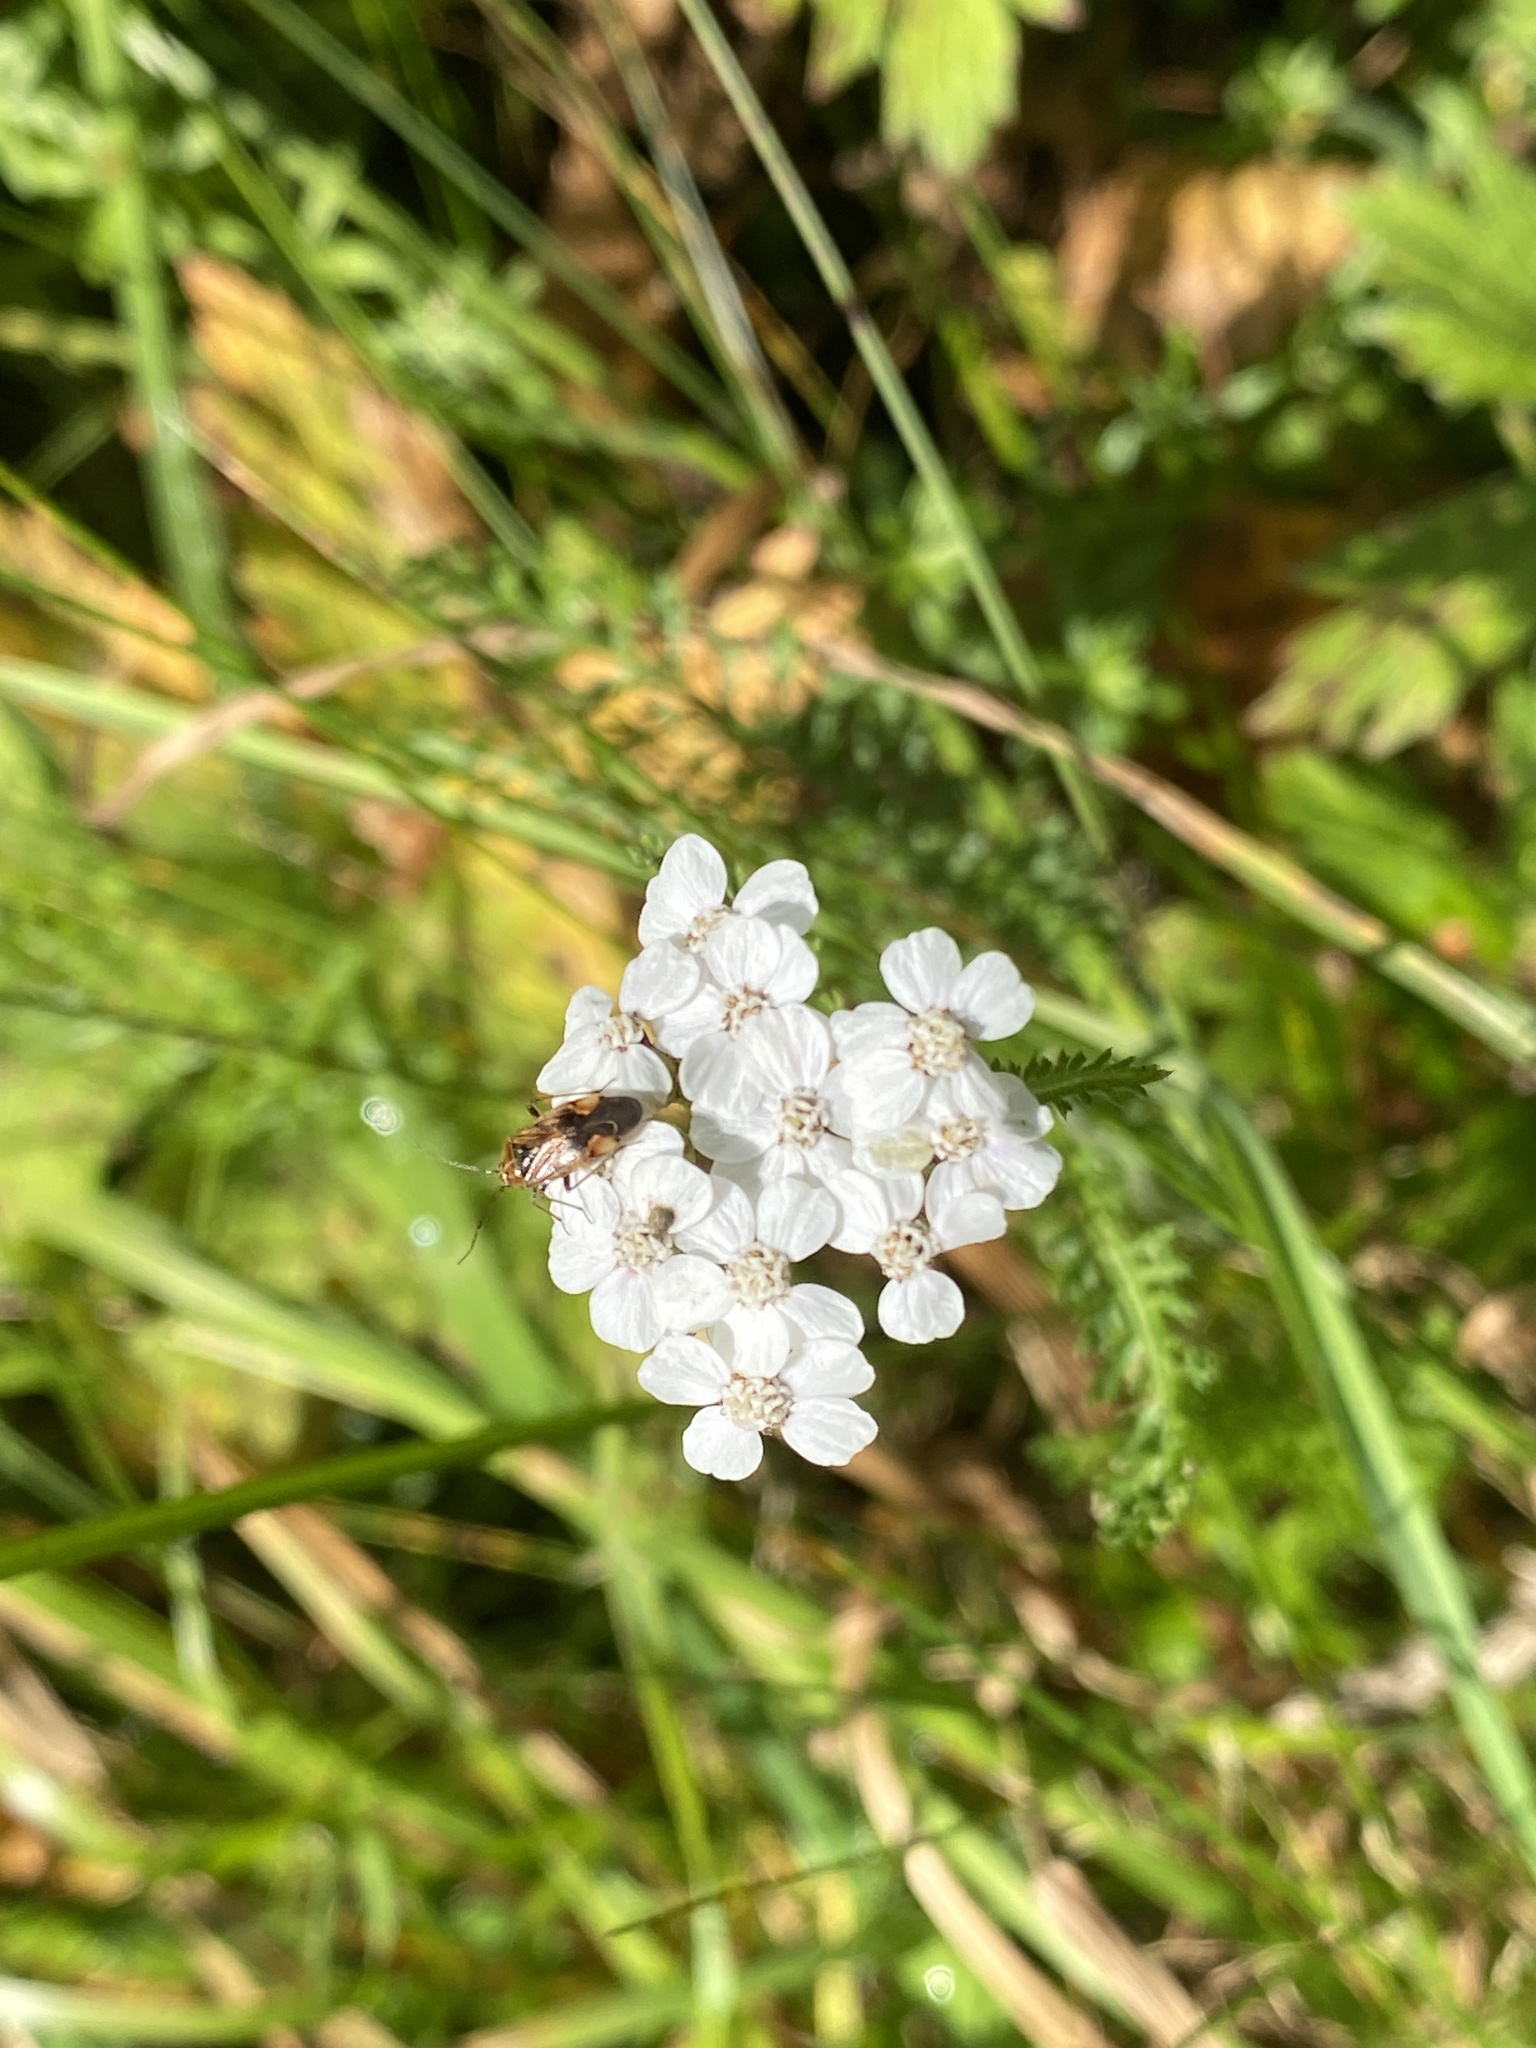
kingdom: Plantae
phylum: Tracheophyta
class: Magnoliopsida
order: Asterales
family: Asteraceae
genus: Achillea
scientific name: Achillea millefolium
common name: Yarrow
